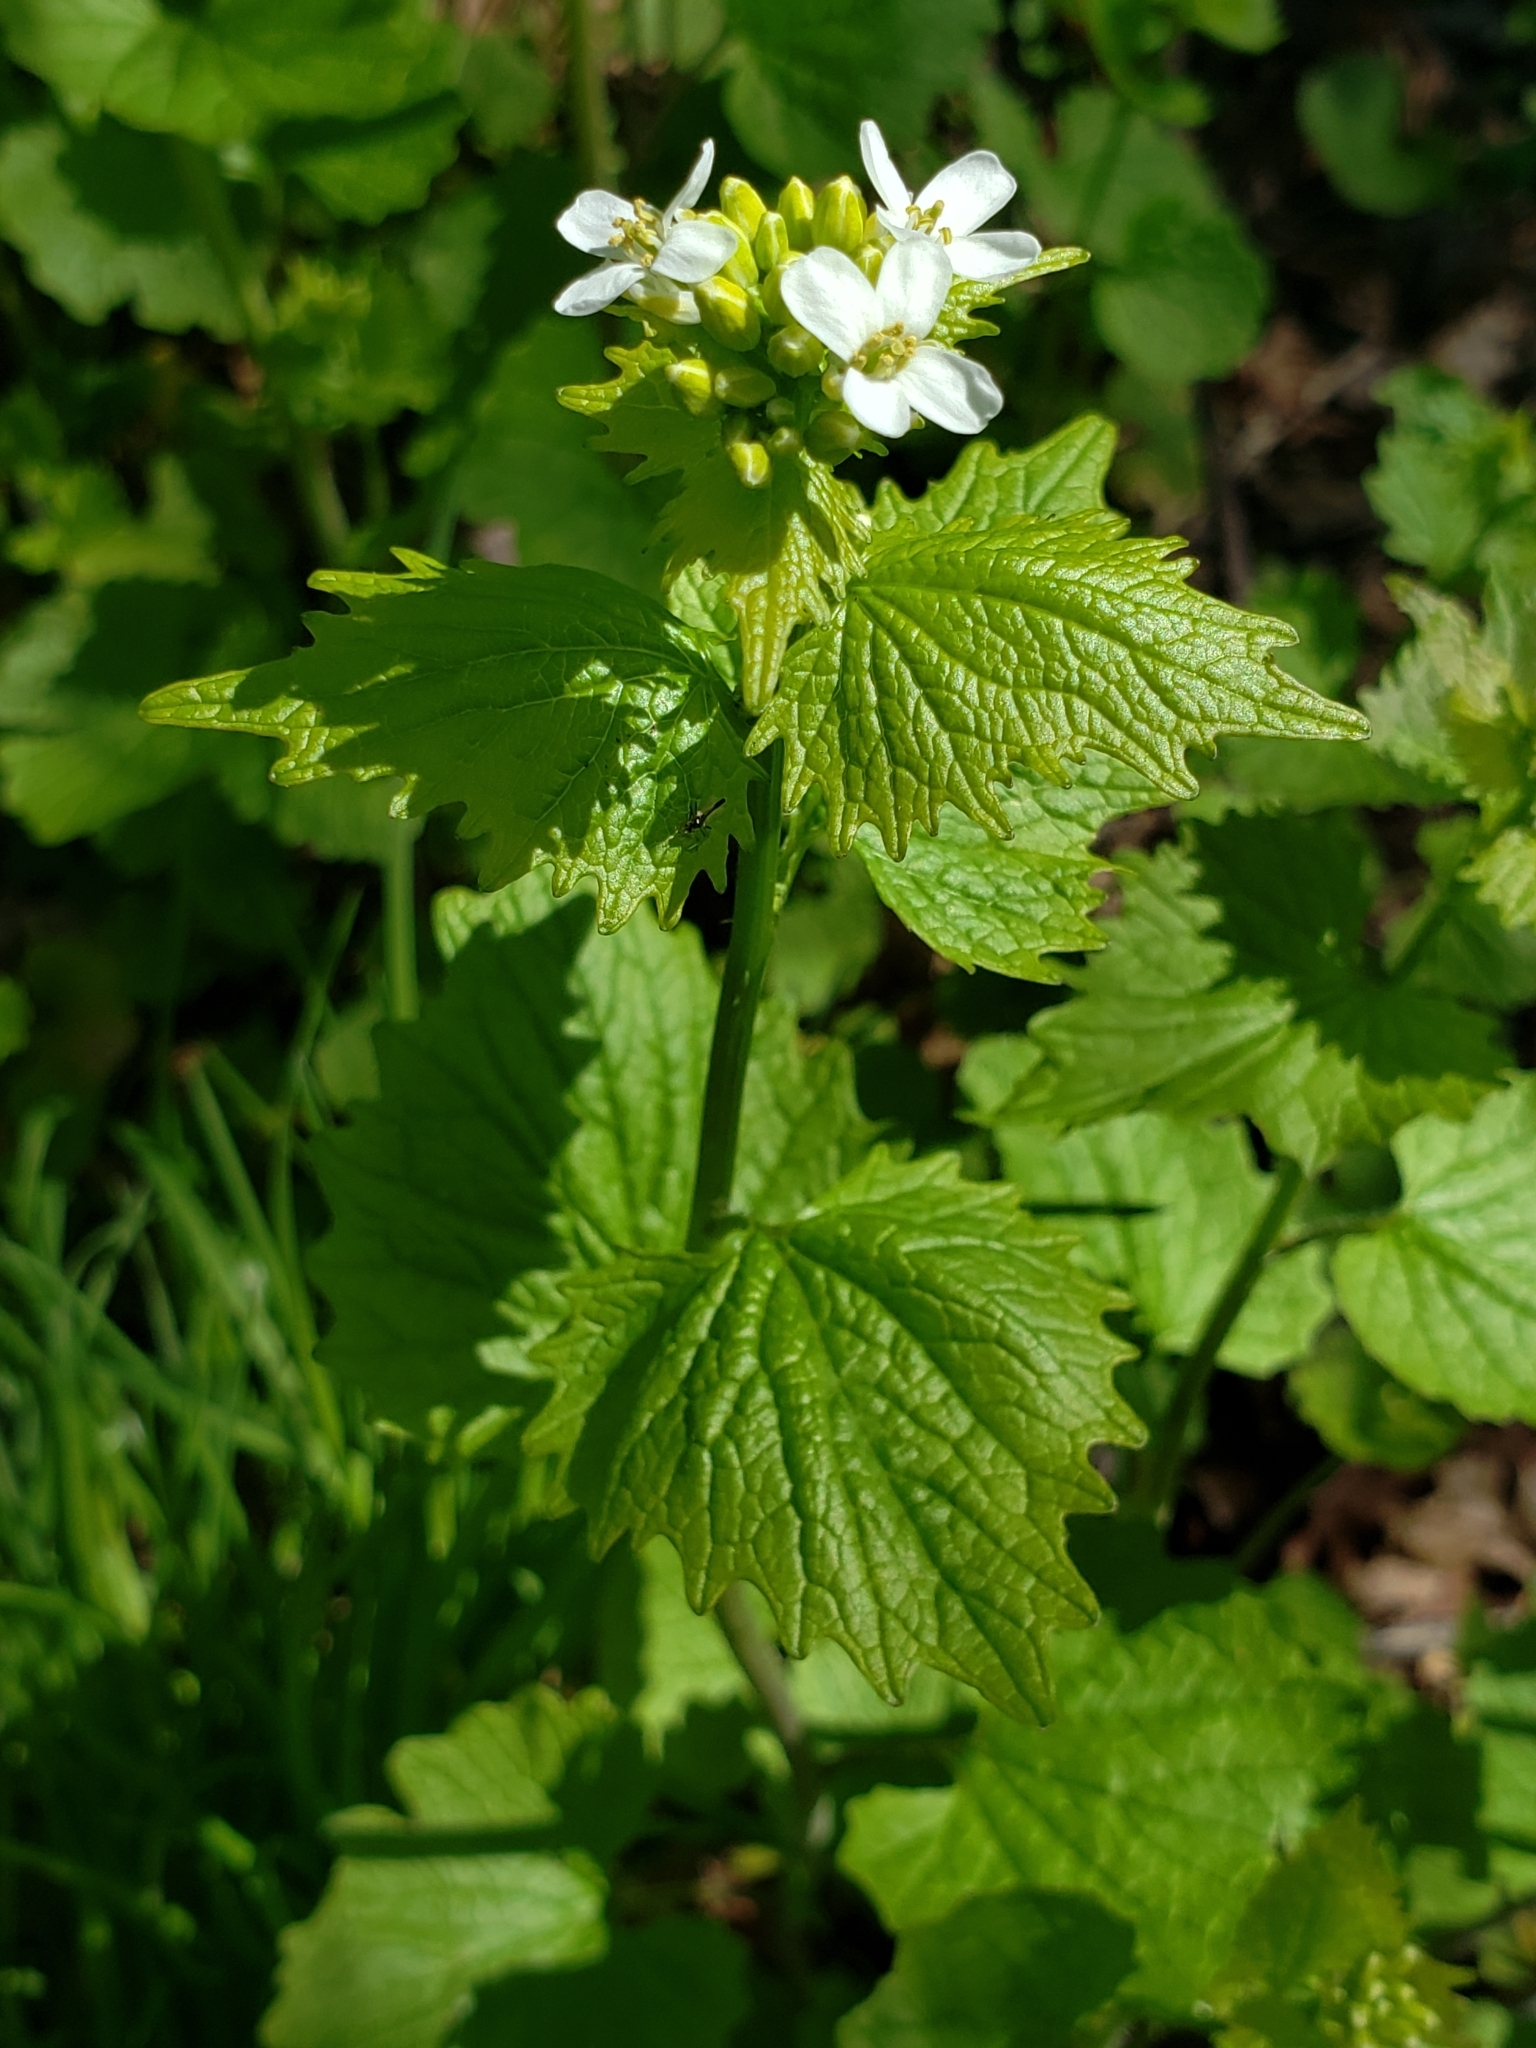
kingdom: Plantae
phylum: Tracheophyta
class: Magnoliopsida
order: Brassicales
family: Brassicaceae
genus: Alliaria
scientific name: Alliaria petiolata
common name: Garlic mustard
